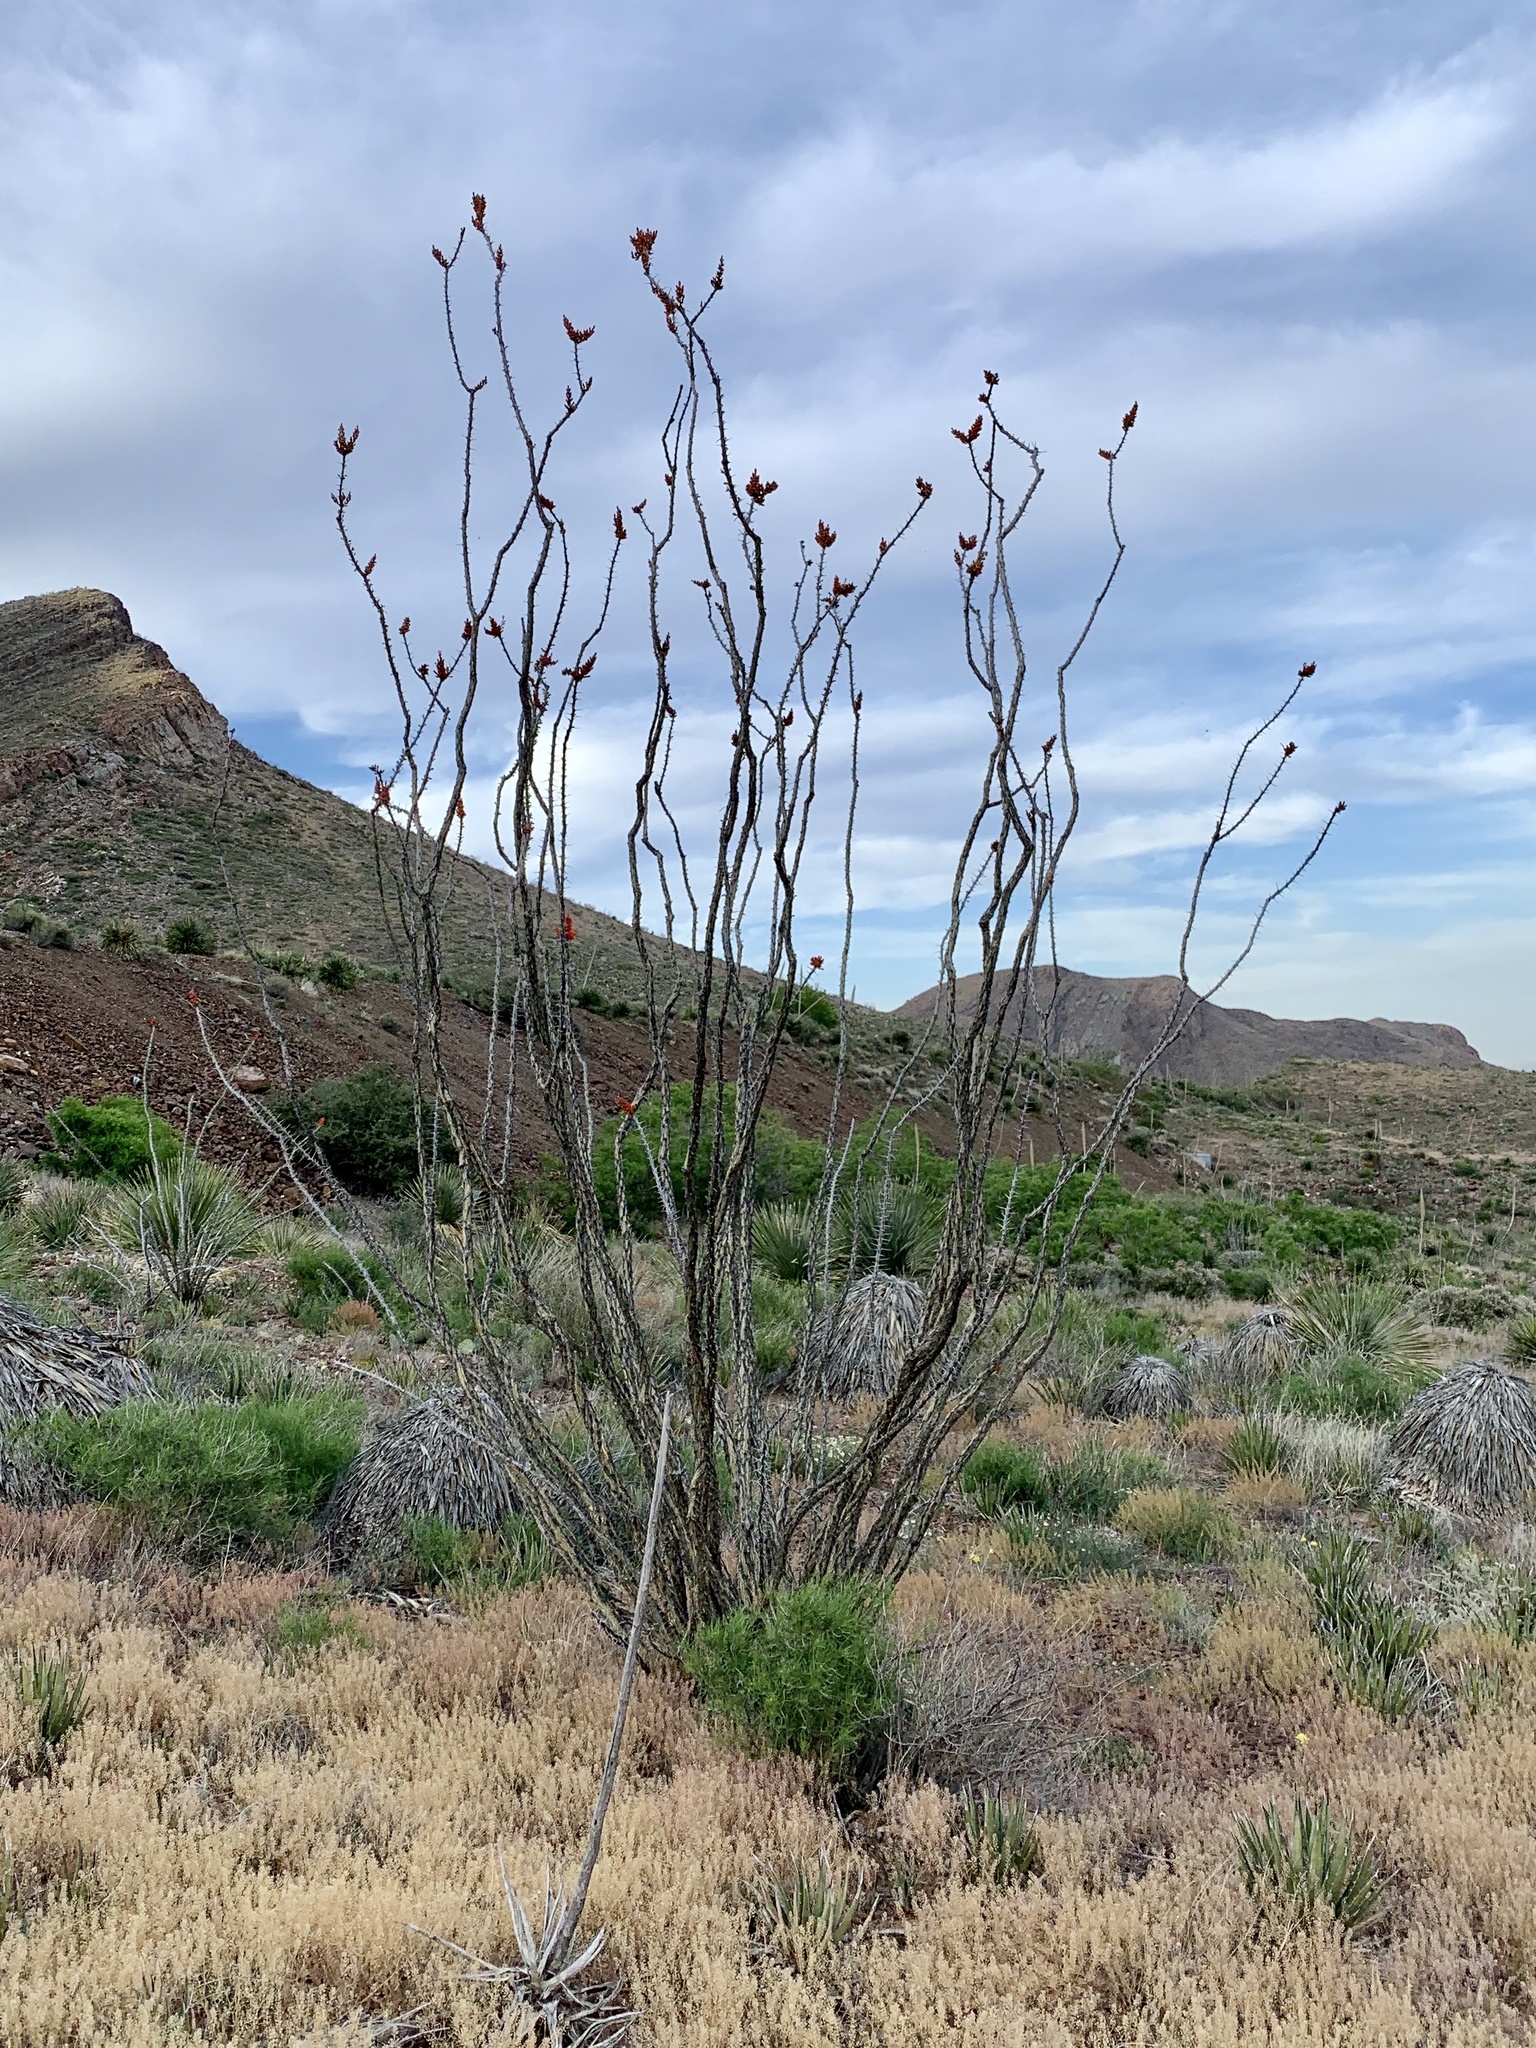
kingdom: Plantae
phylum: Tracheophyta
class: Magnoliopsida
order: Ericales
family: Fouquieriaceae
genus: Fouquieria
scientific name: Fouquieria splendens
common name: Vine-cactus
